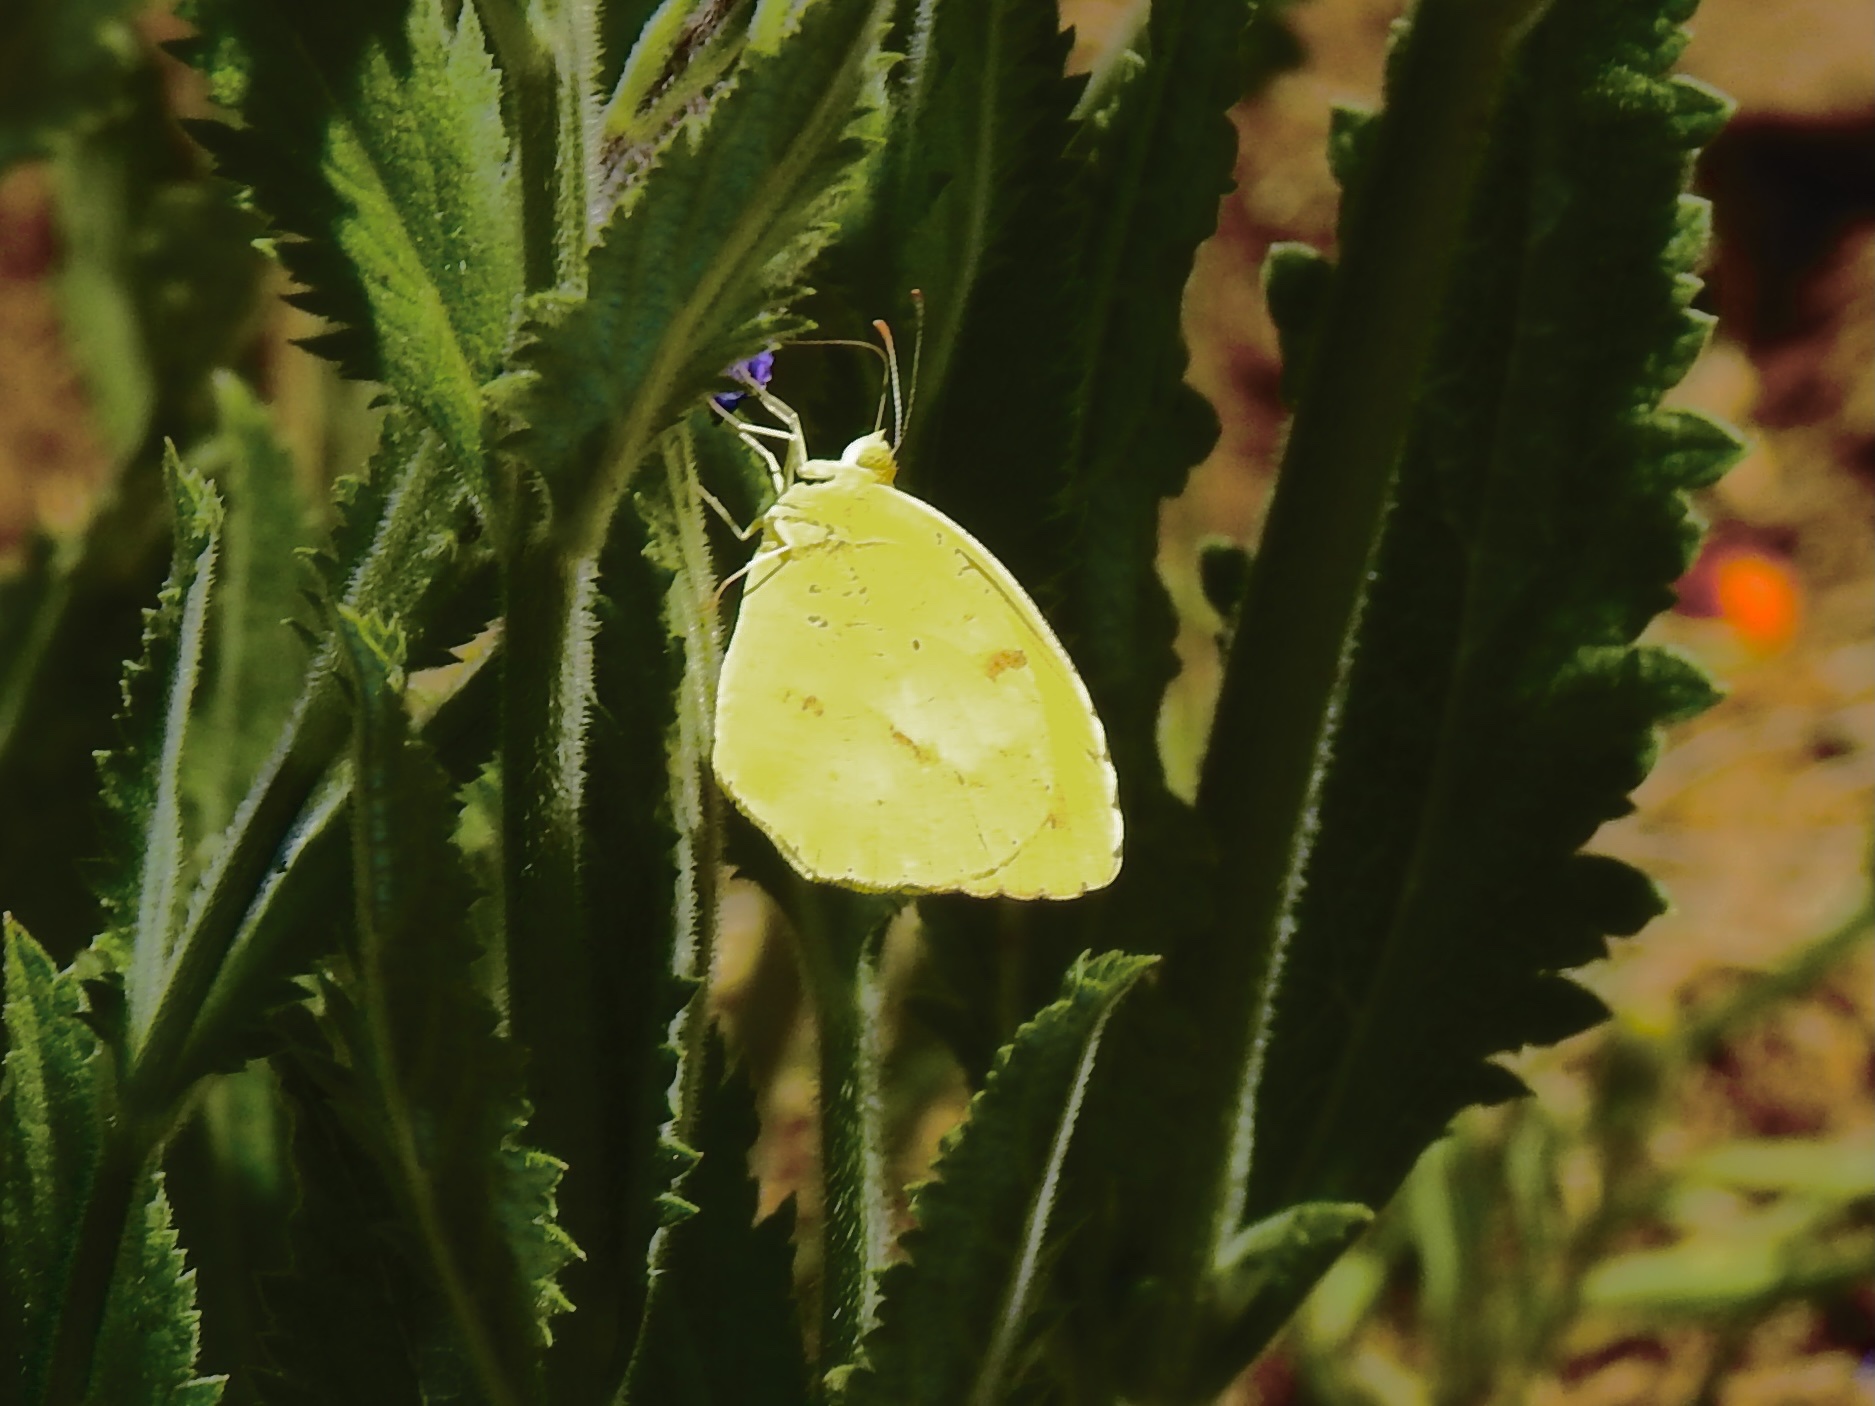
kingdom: Animalia
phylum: Arthropoda
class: Insecta
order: Lepidoptera
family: Pieridae
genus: Abaeis
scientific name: Abaeis nicippe
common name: Sleepy orange
